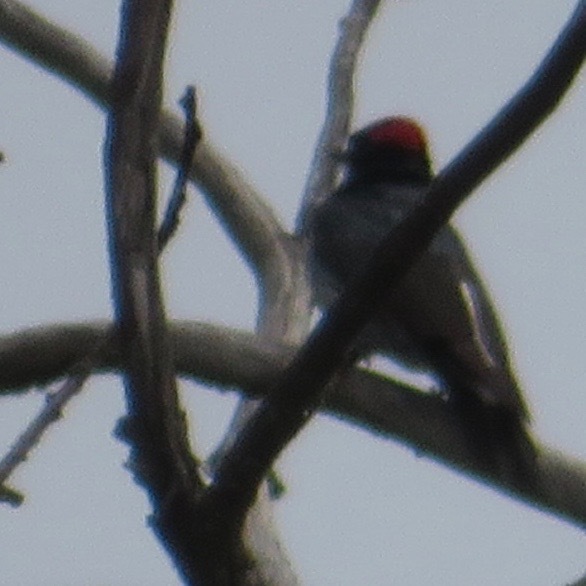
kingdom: Animalia
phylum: Chordata
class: Aves
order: Piciformes
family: Picidae
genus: Melanerpes
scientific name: Melanerpes formicivorus
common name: Acorn woodpecker
